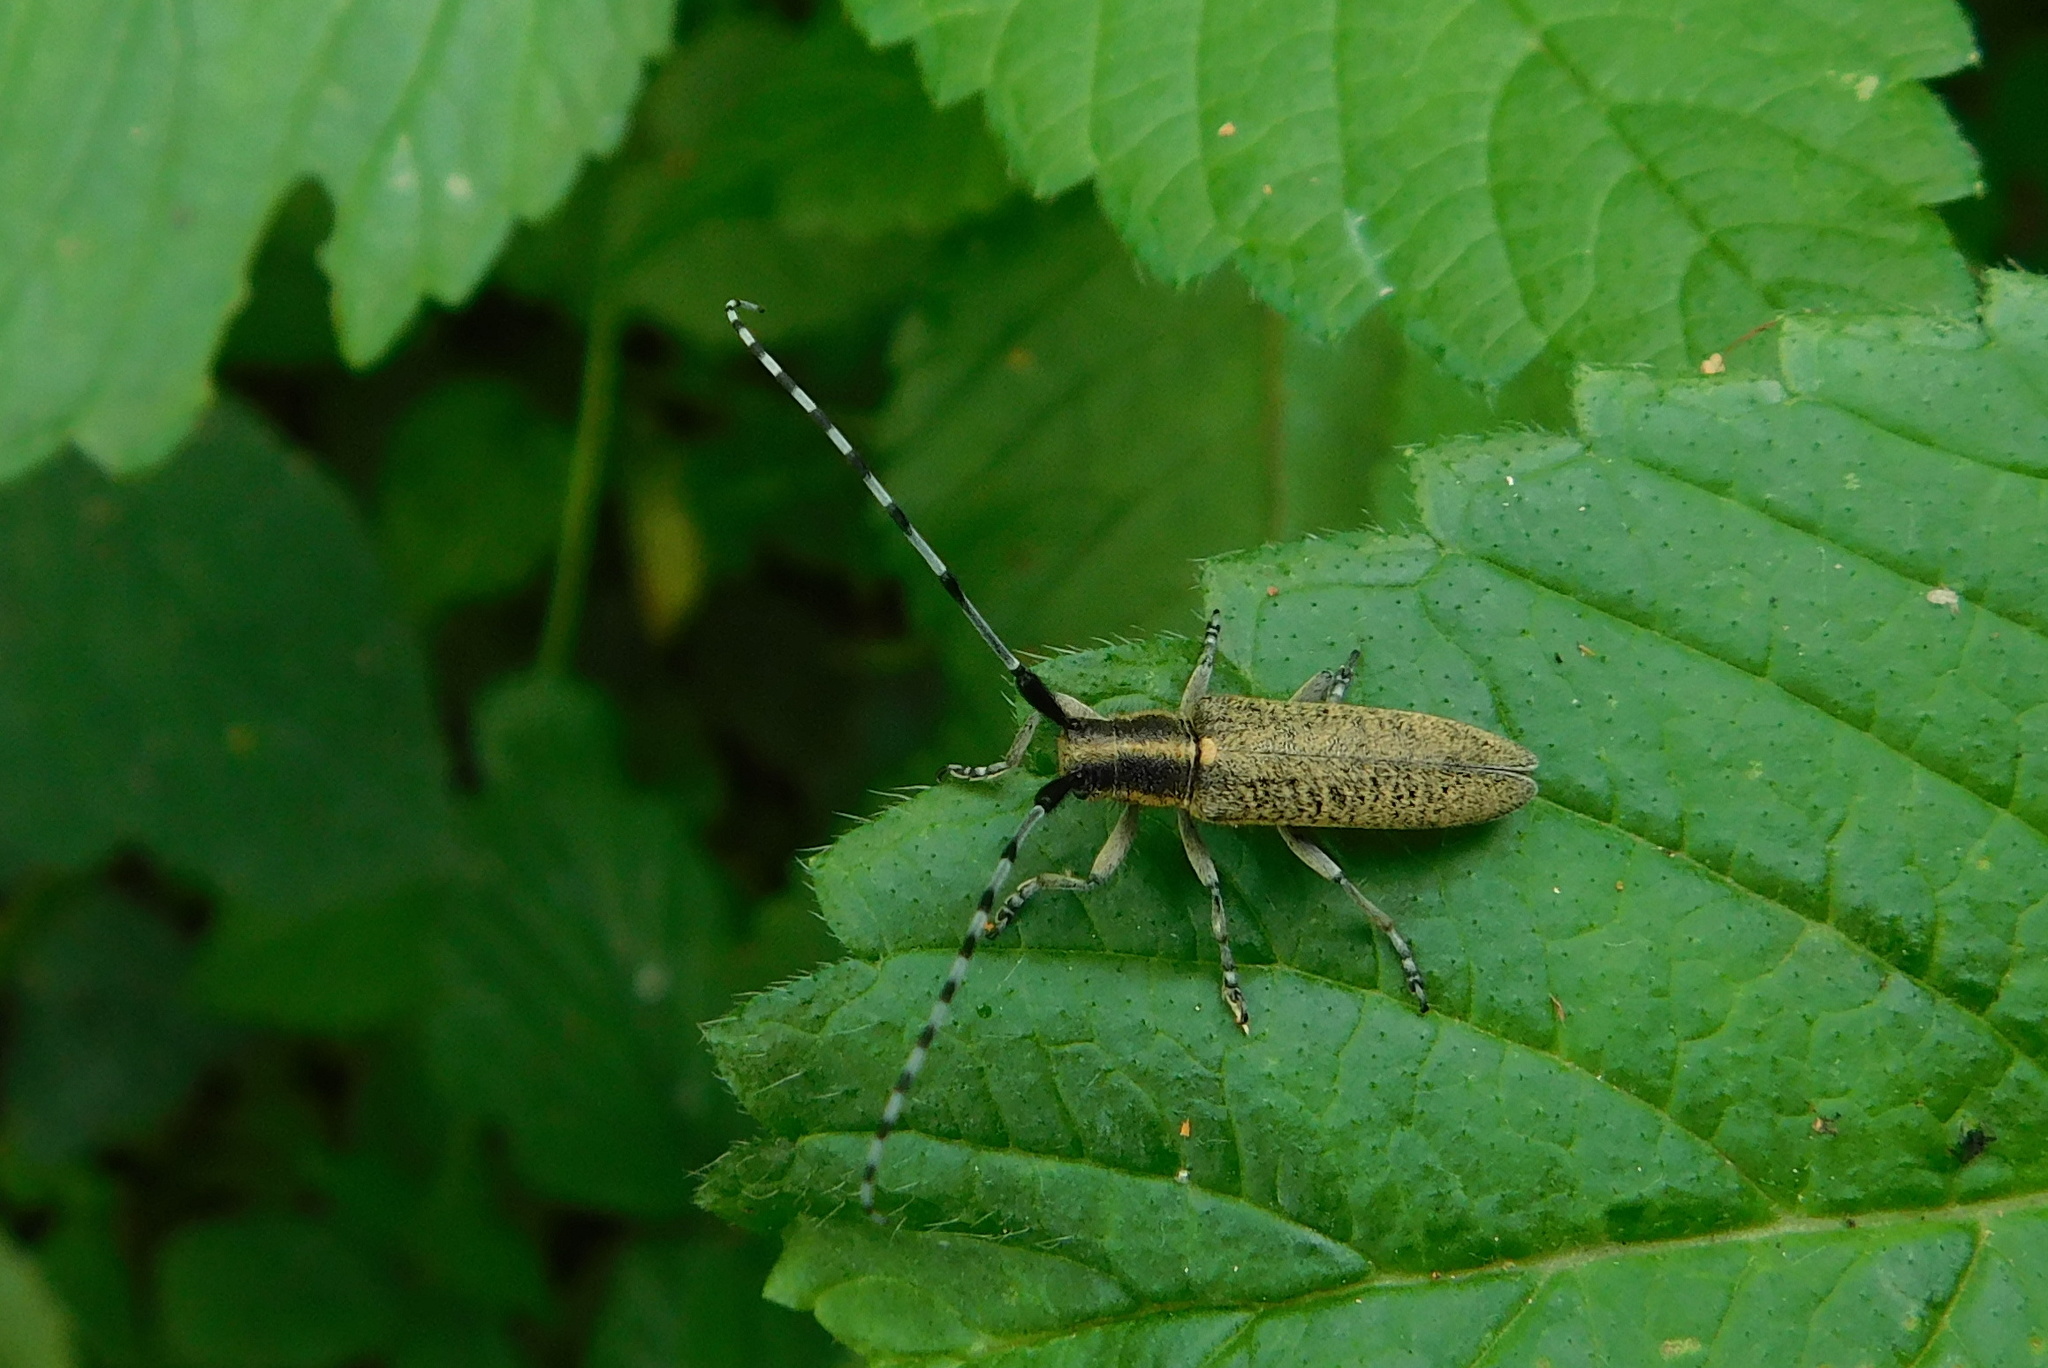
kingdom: Animalia
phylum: Arthropoda
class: Insecta
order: Coleoptera
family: Cerambycidae
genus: Agapanthia
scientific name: Agapanthia villosoviridescens
